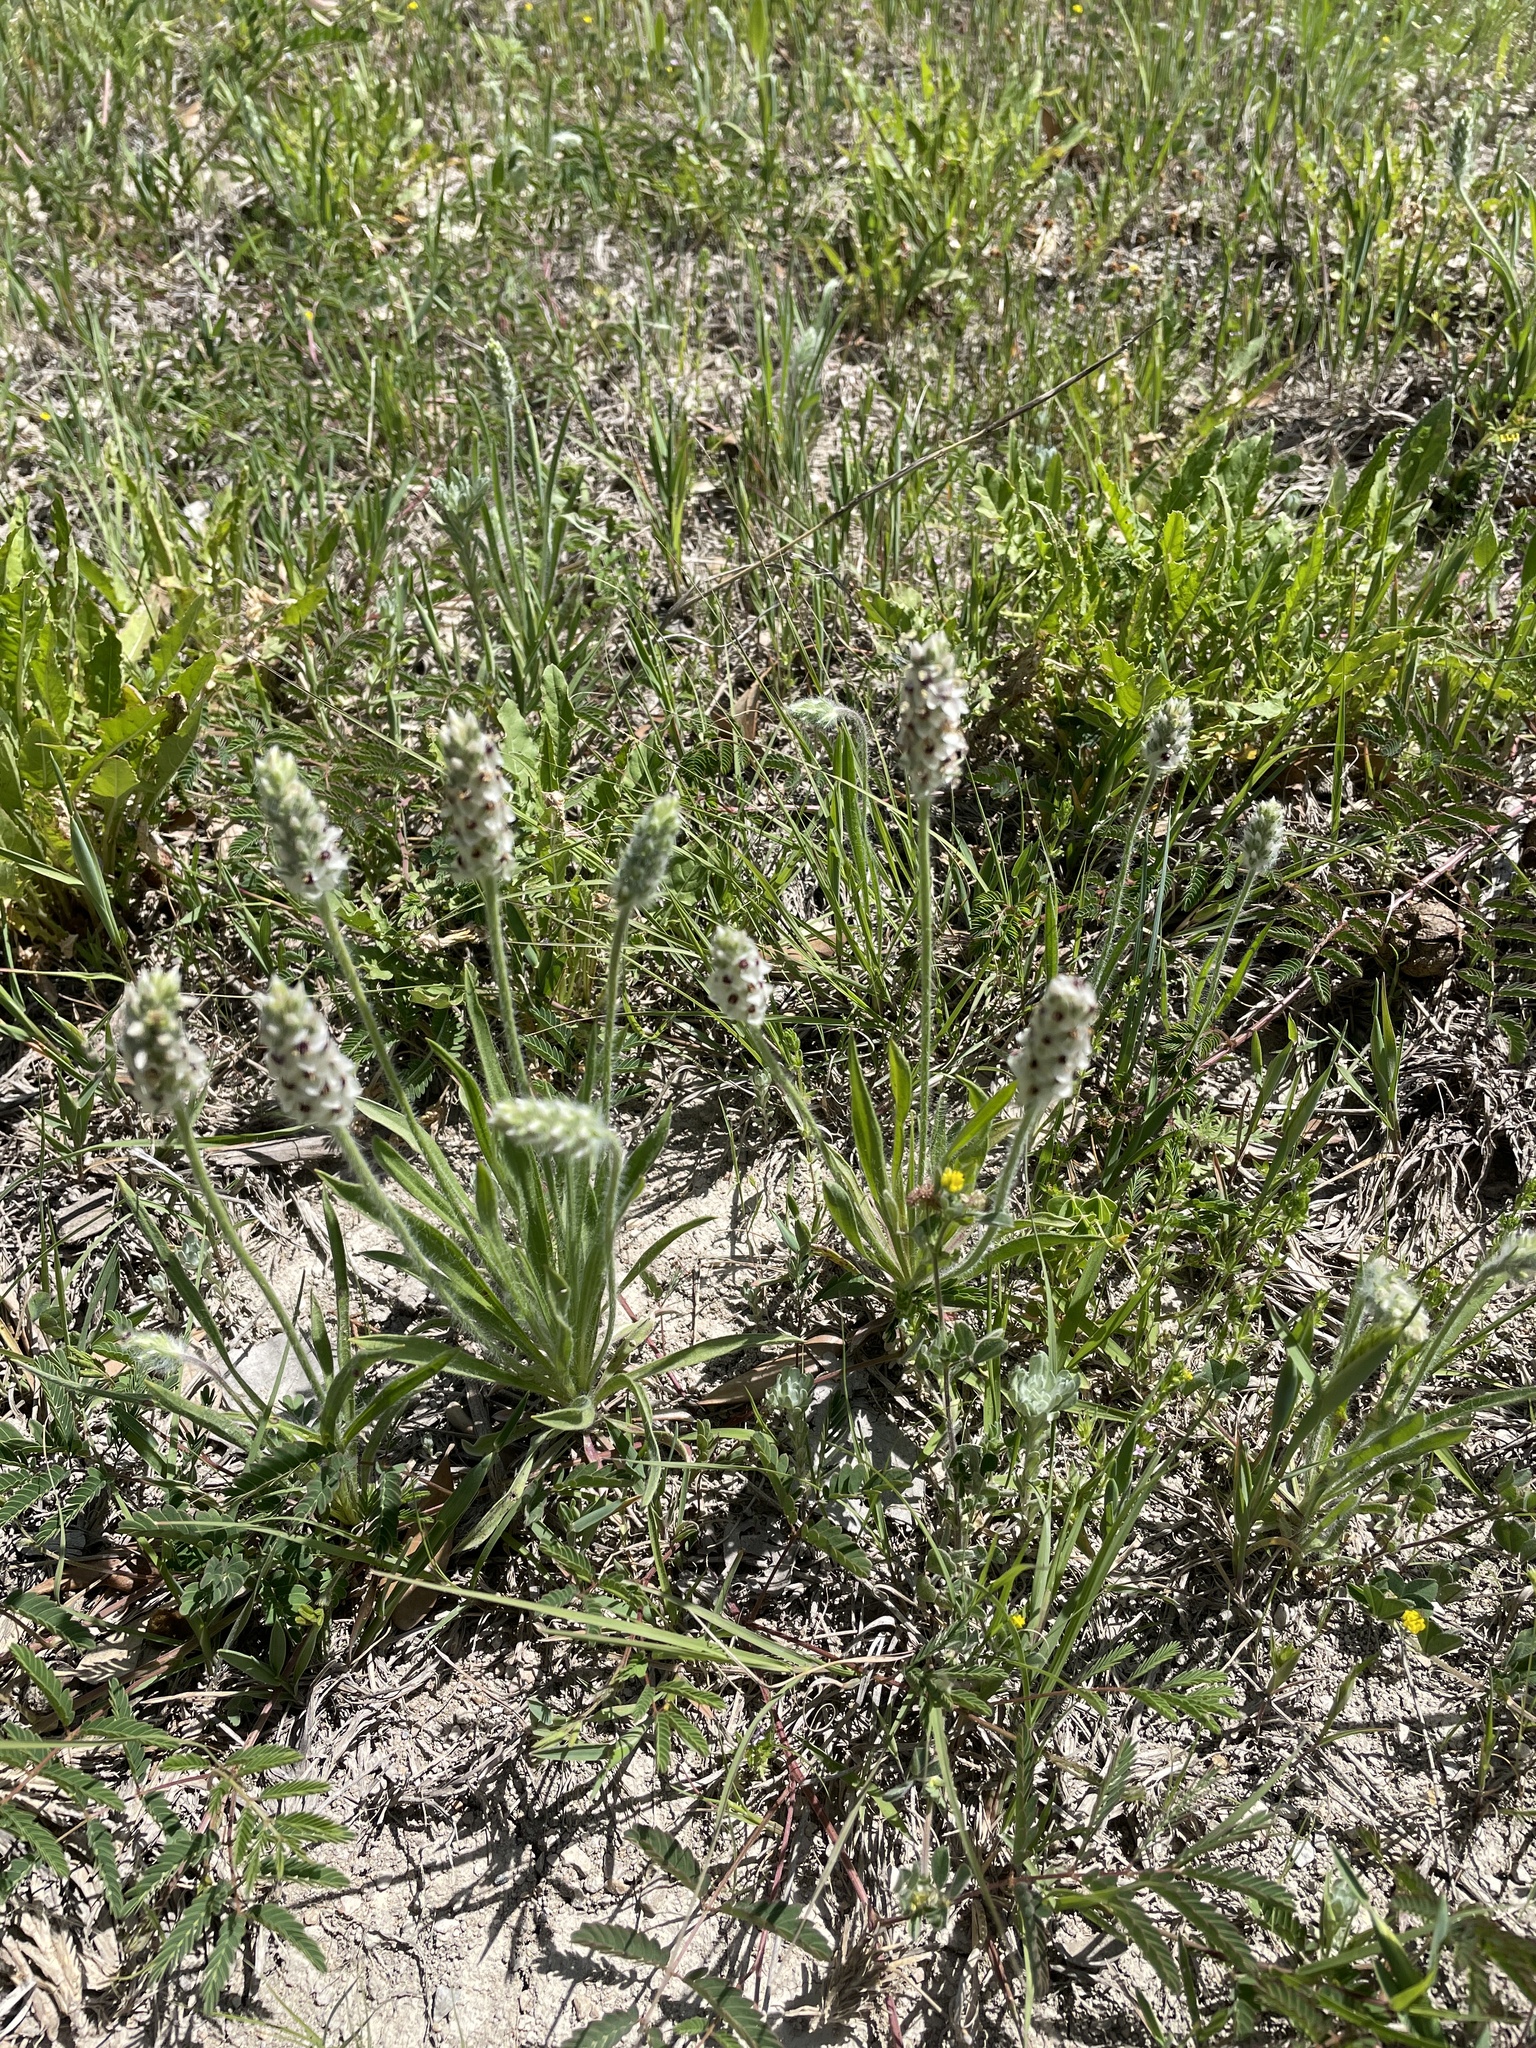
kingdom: Plantae
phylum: Tracheophyta
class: Magnoliopsida
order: Lamiales
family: Plantaginaceae
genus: Plantago
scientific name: Plantago helleri
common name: Heller's plantain
